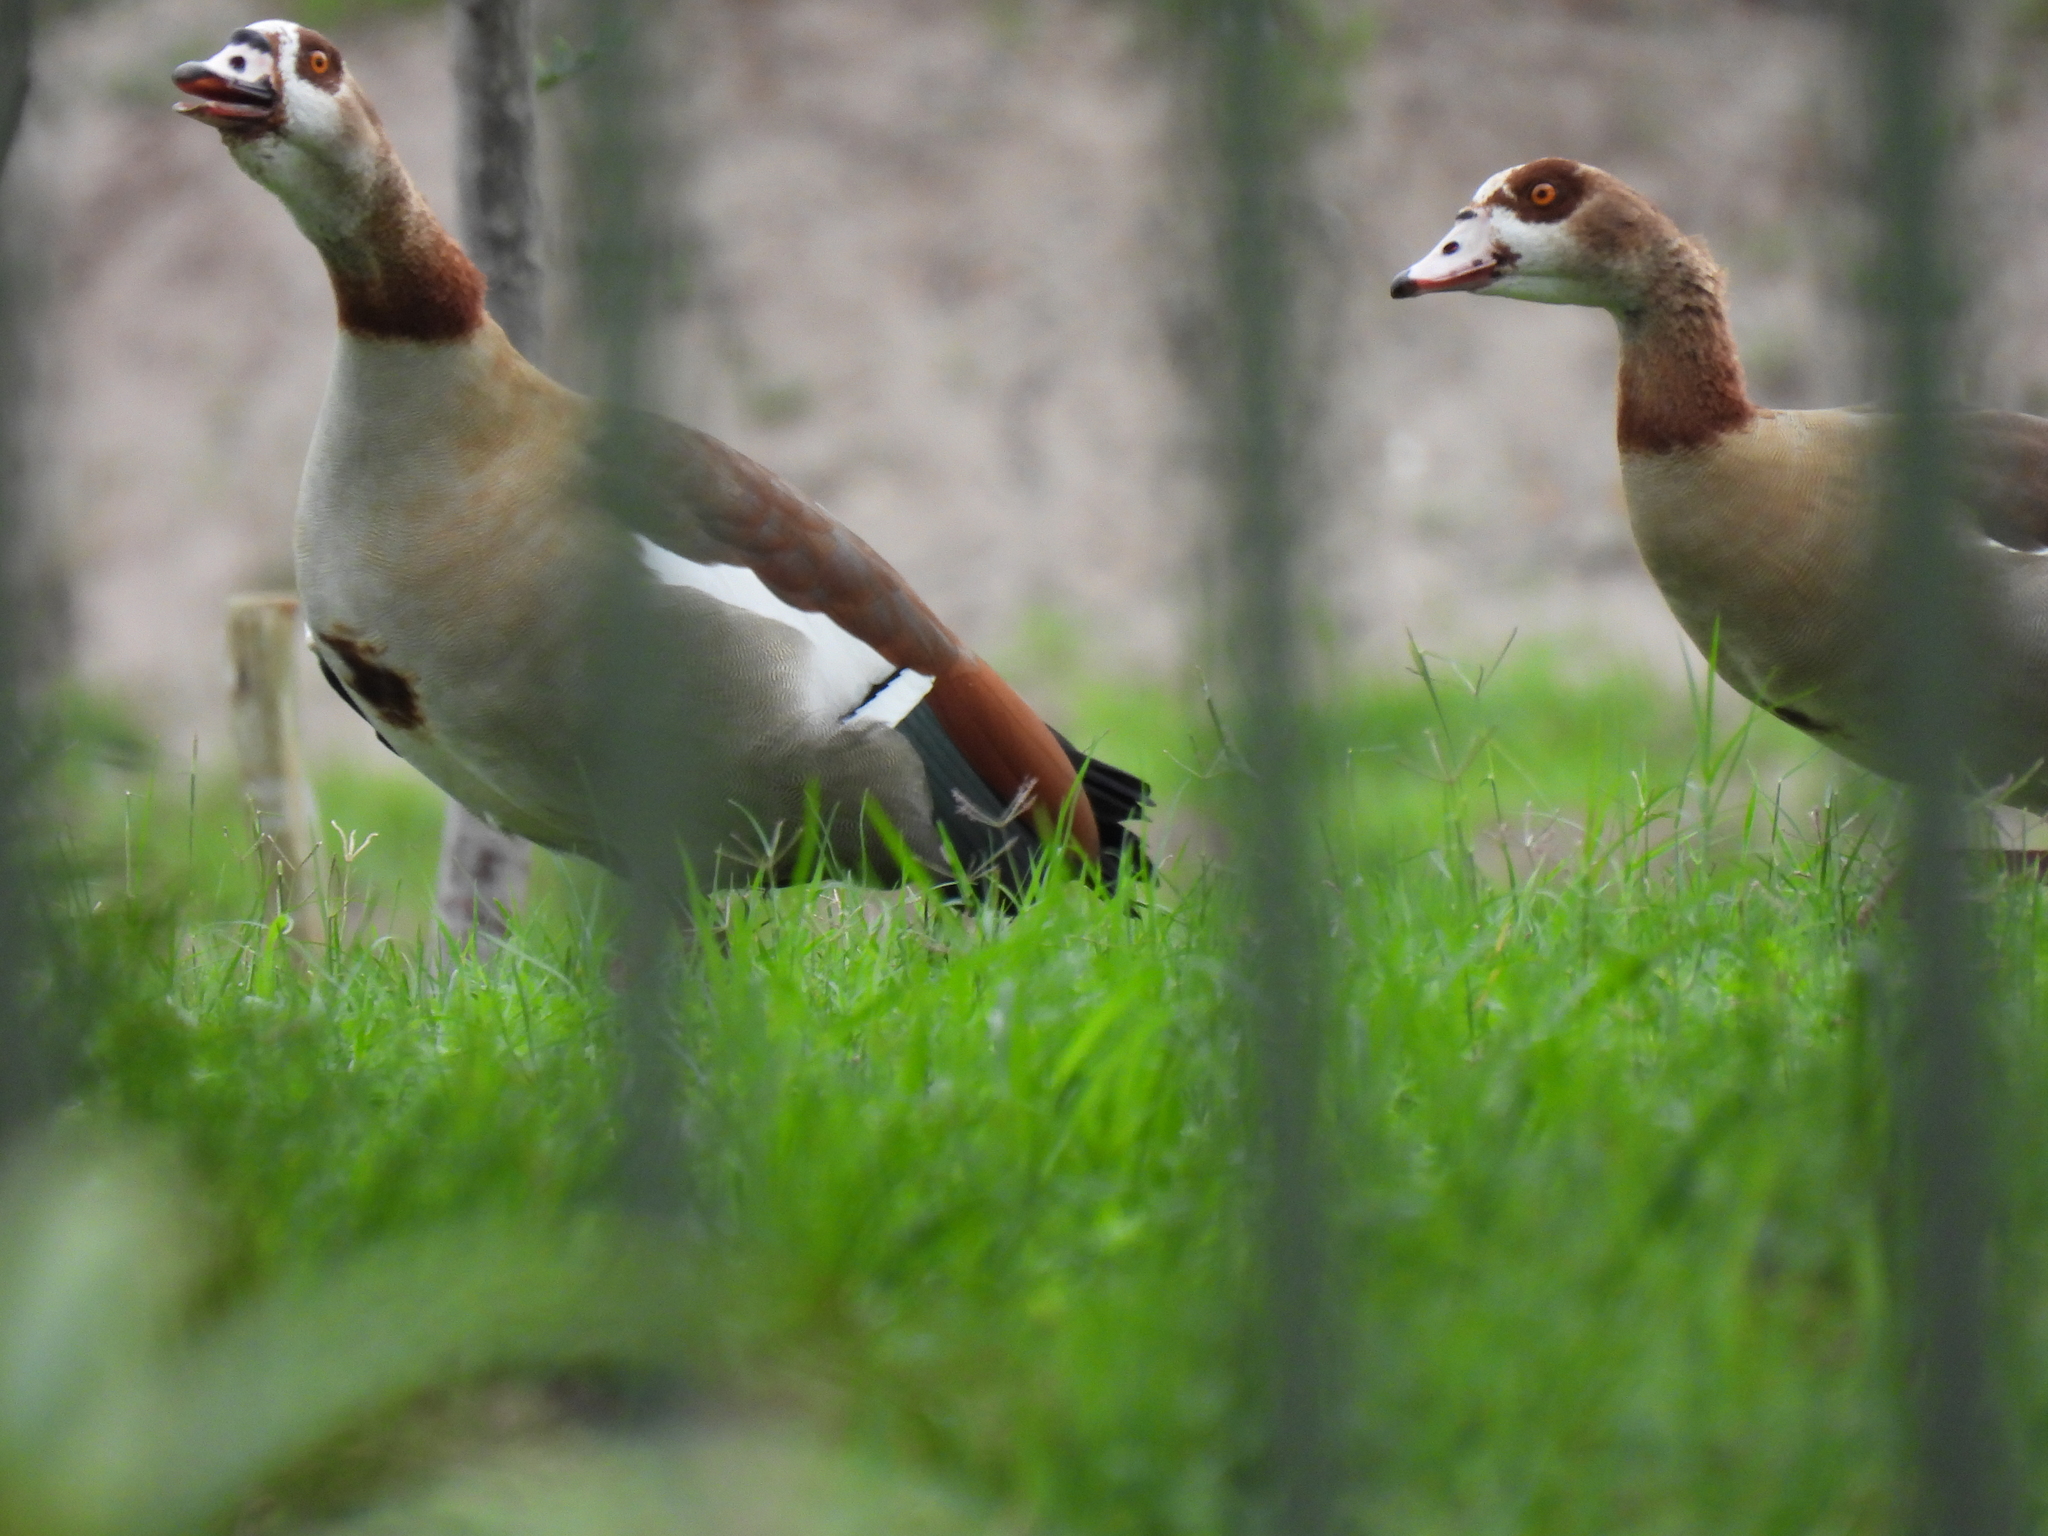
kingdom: Animalia
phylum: Chordata
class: Aves
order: Anseriformes
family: Anatidae
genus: Alopochen
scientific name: Alopochen aegyptiaca
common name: Egyptian goose
